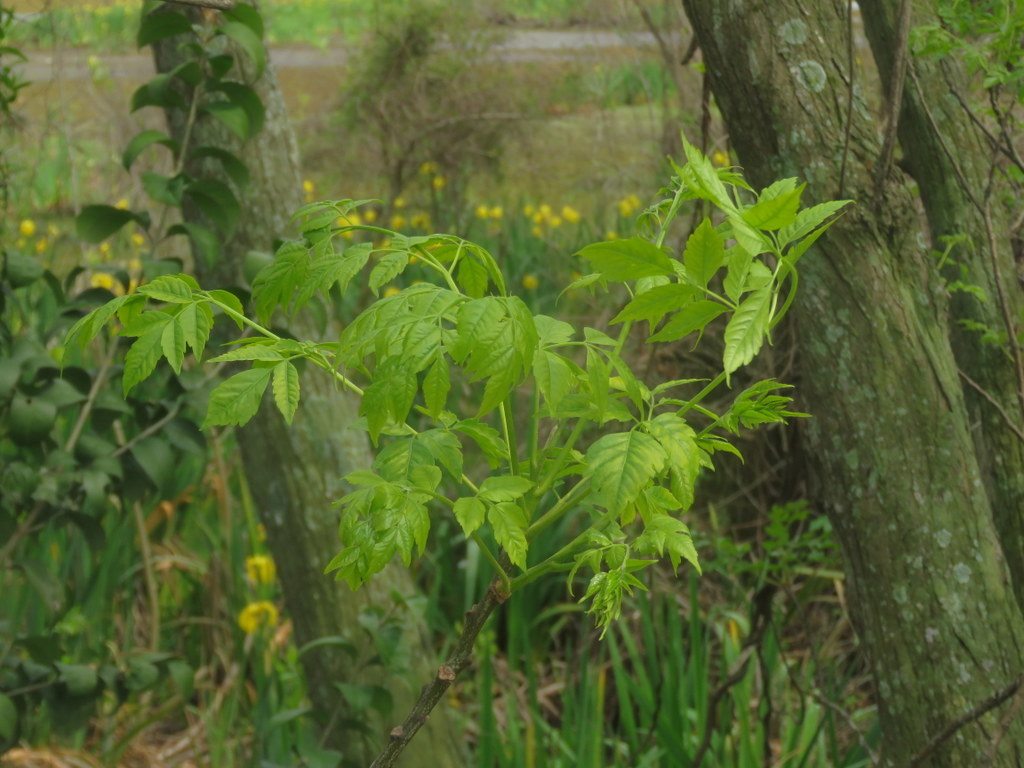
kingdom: Plantae
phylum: Tracheophyta
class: Magnoliopsida
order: Sapindales
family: Sapindaceae
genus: Acer
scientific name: Acer negundo
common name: Ashleaf maple
